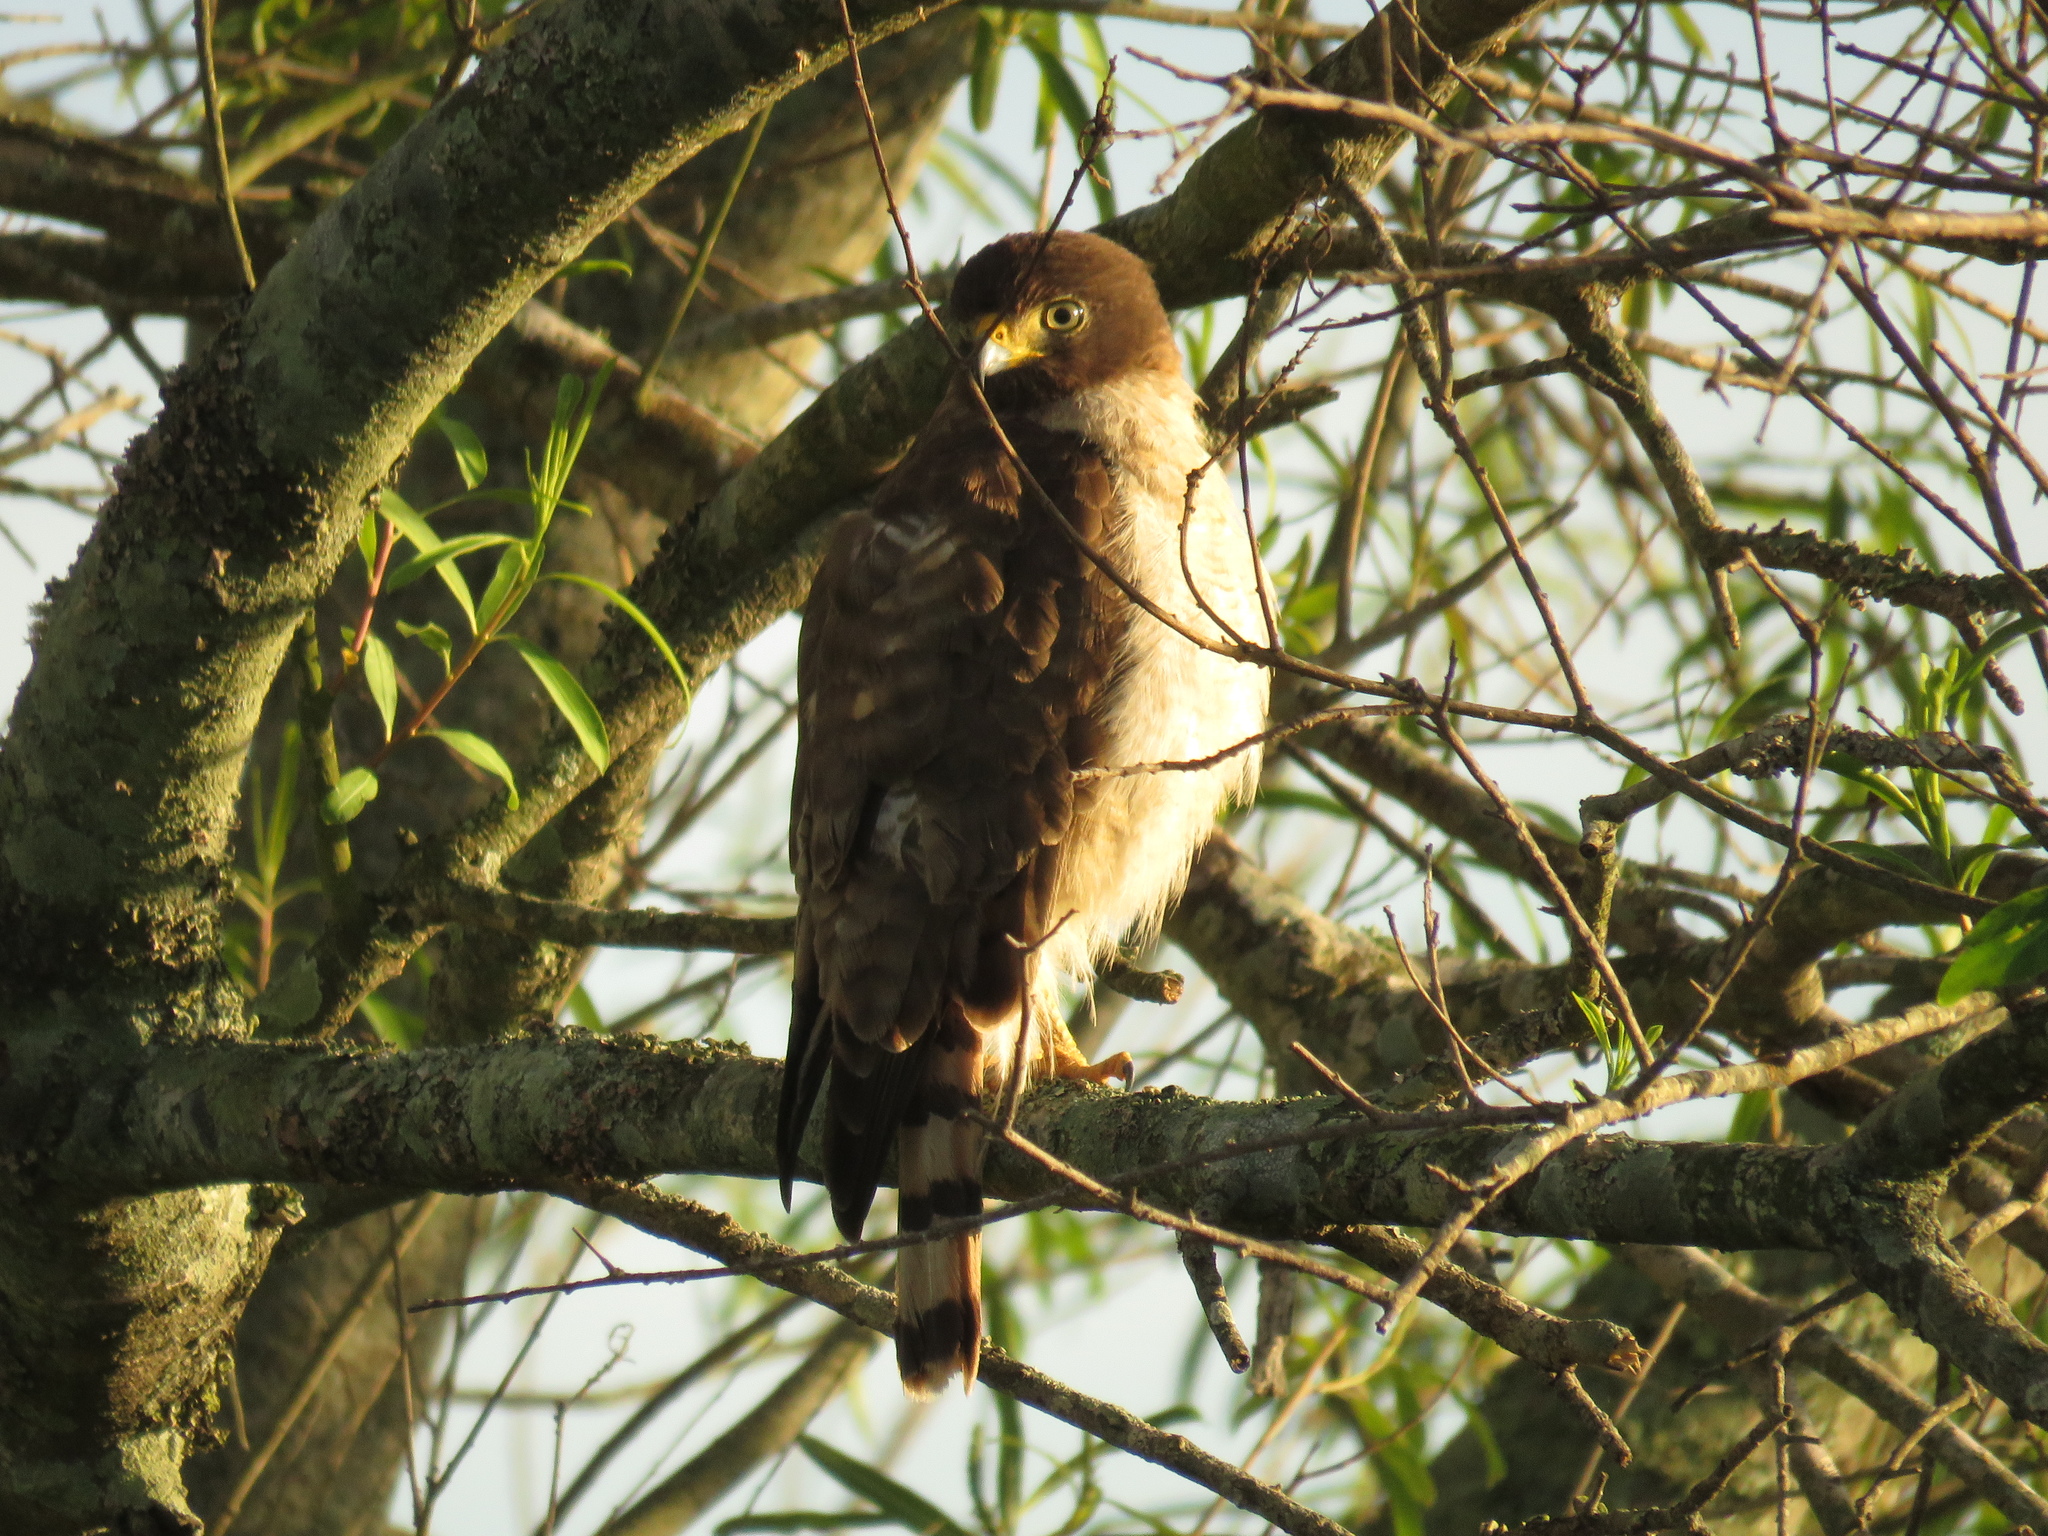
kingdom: Animalia
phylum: Chordata
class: Aves
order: Accipitriformes
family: Accipitridae
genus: Rupornis
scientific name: Rupornis magnirostris
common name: Roadside hawk
